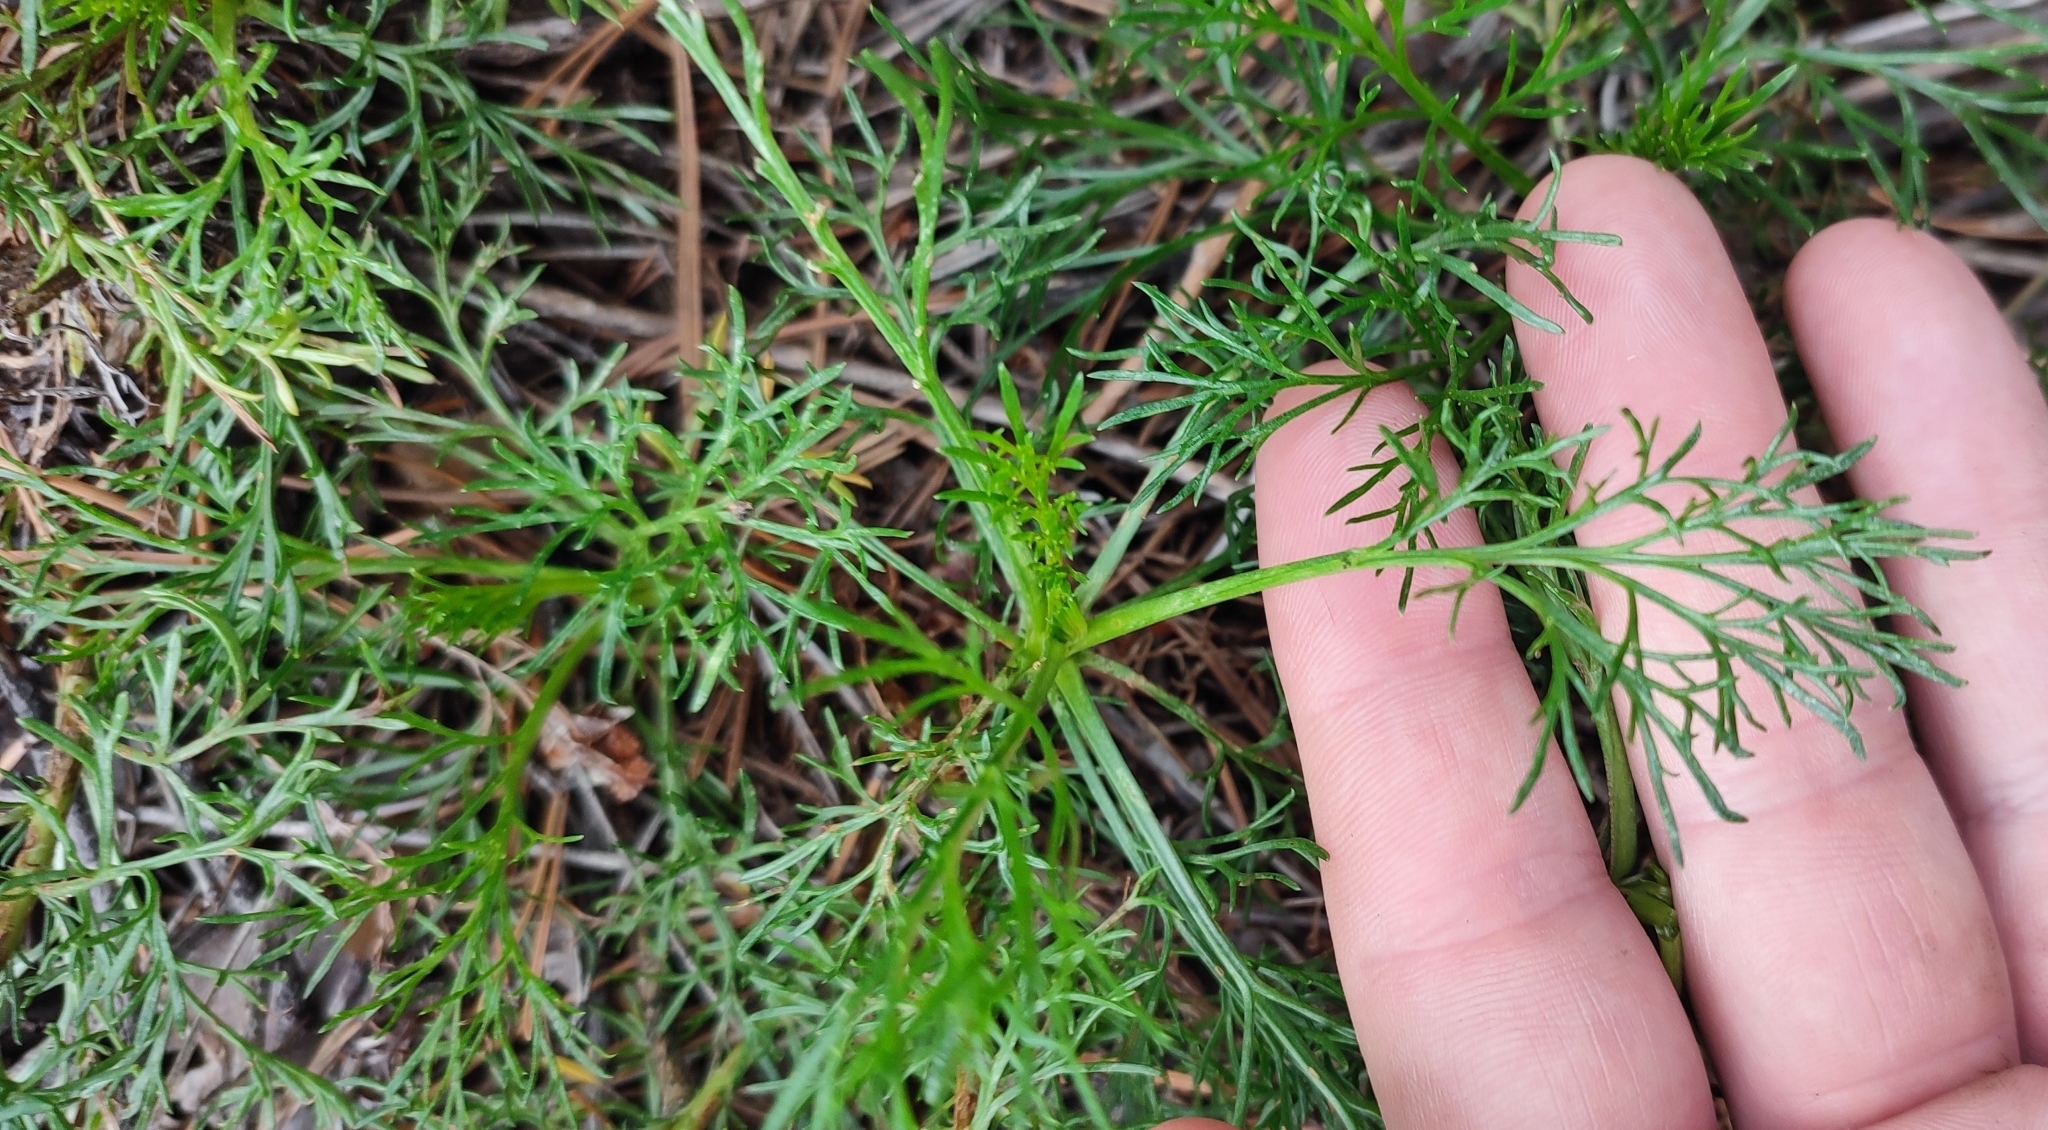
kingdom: Plantae
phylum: Tracheophyta
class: Magnoliopsida
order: Asterales
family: Asteraceae
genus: Artemisia
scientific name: Artemisia campestris
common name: Field wormwood
